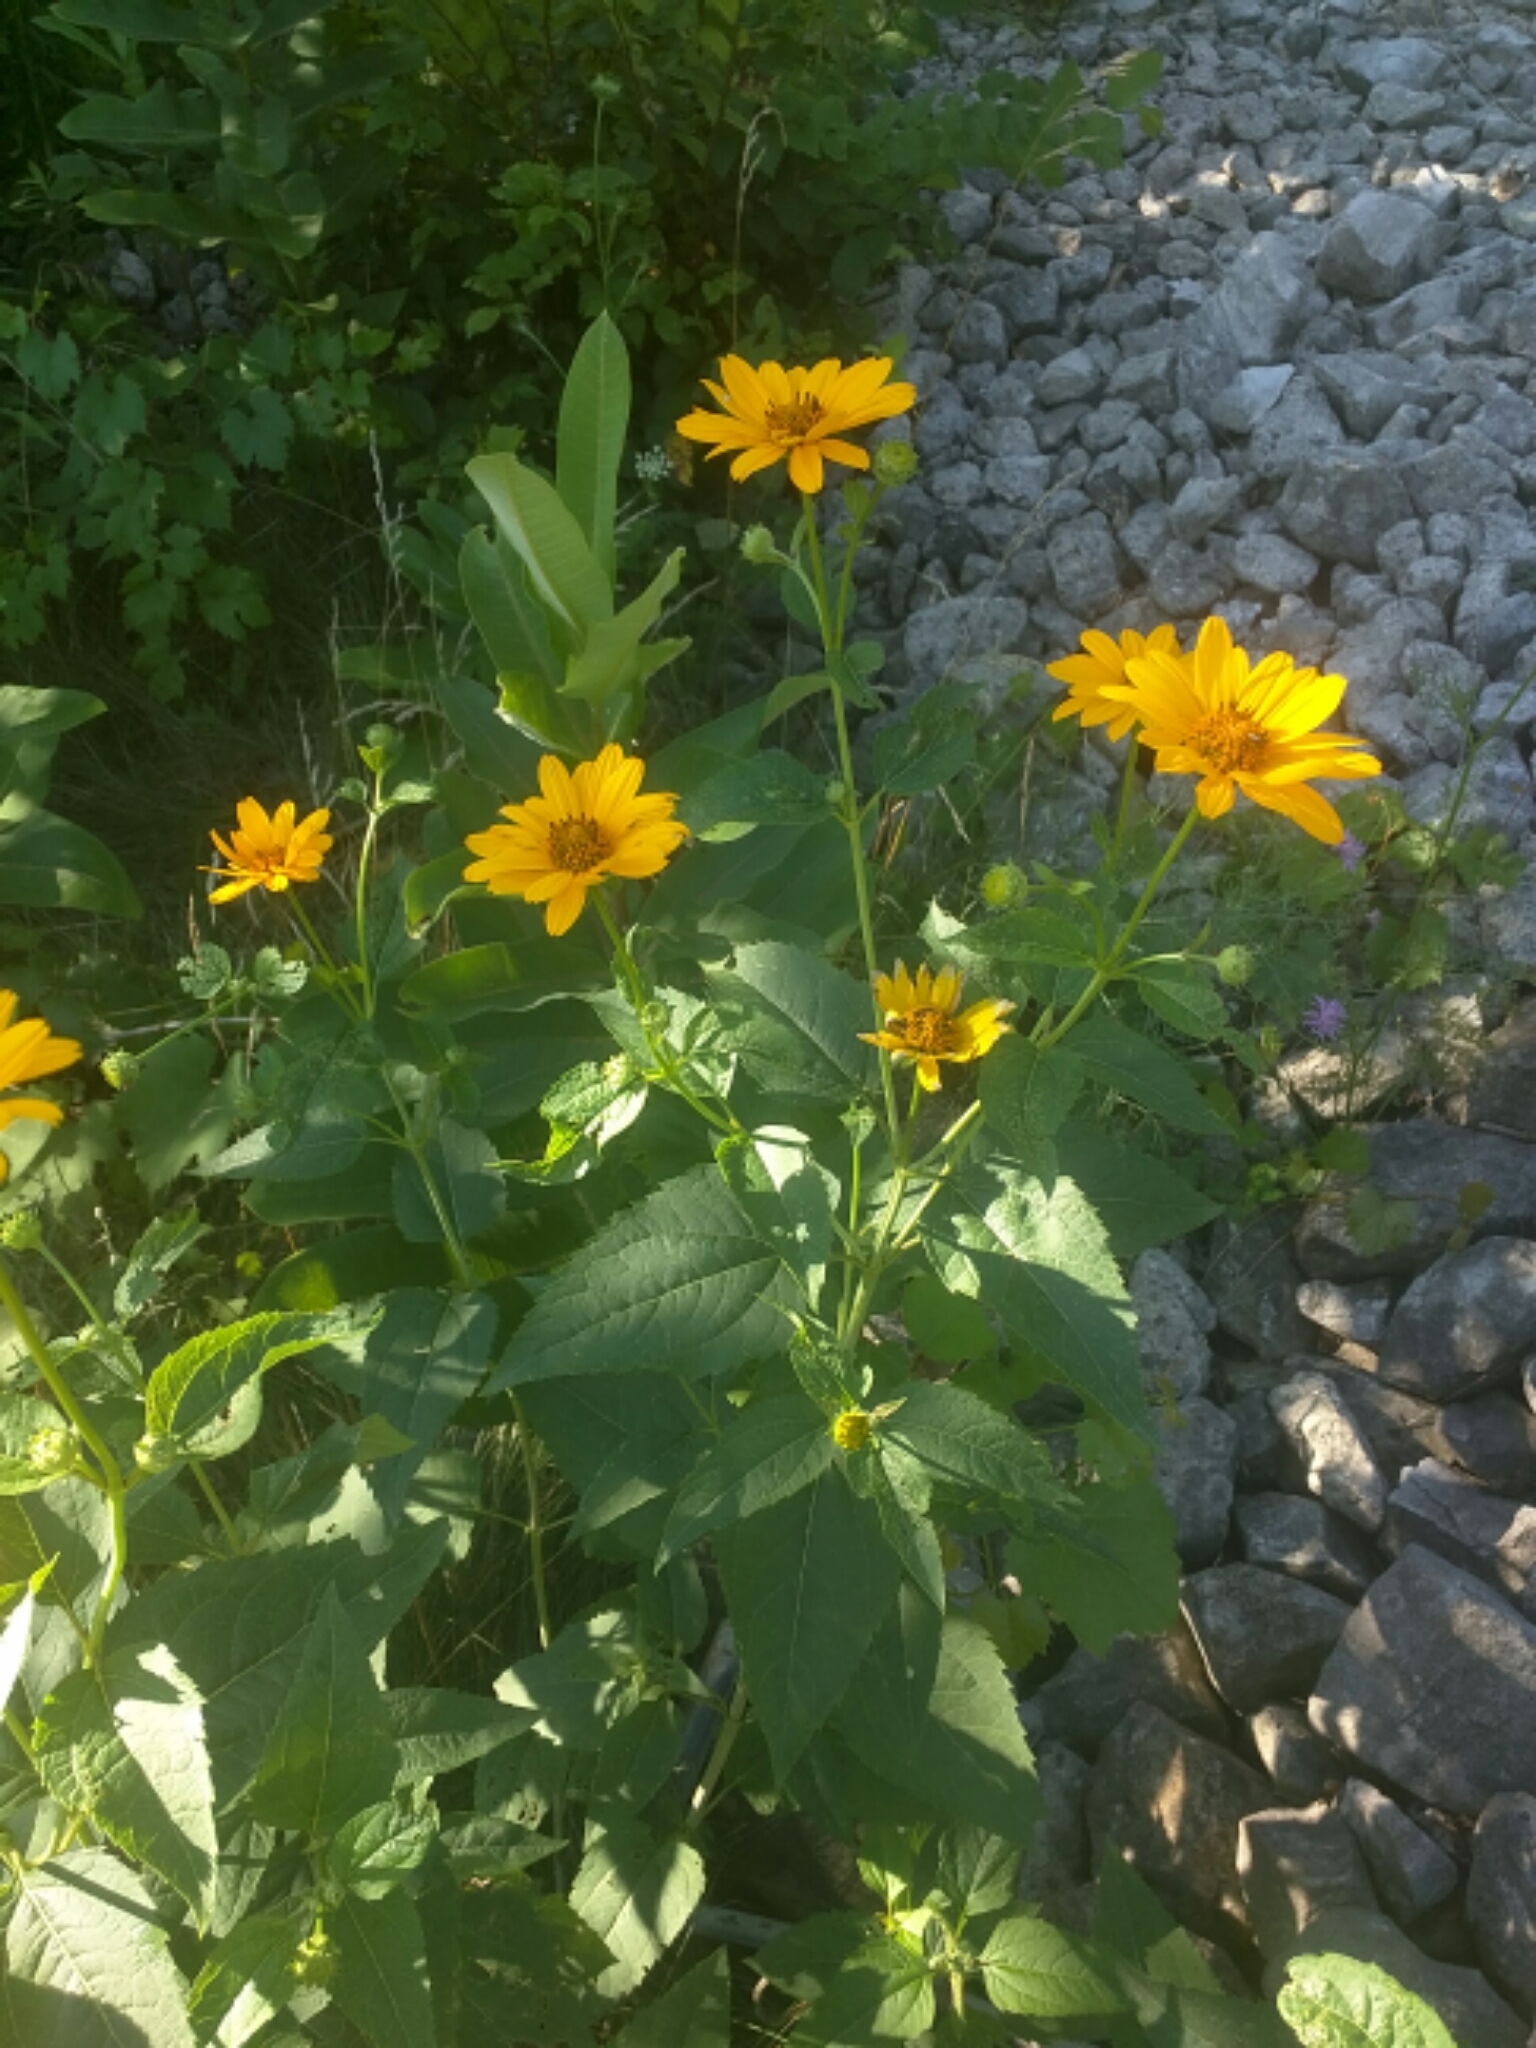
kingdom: Plantae
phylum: Tracheophyta
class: Magnoliopsida
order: Asterales
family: Asteraceae
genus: Heliopsis
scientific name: Heliopsis helianthoides
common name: False sunflower
